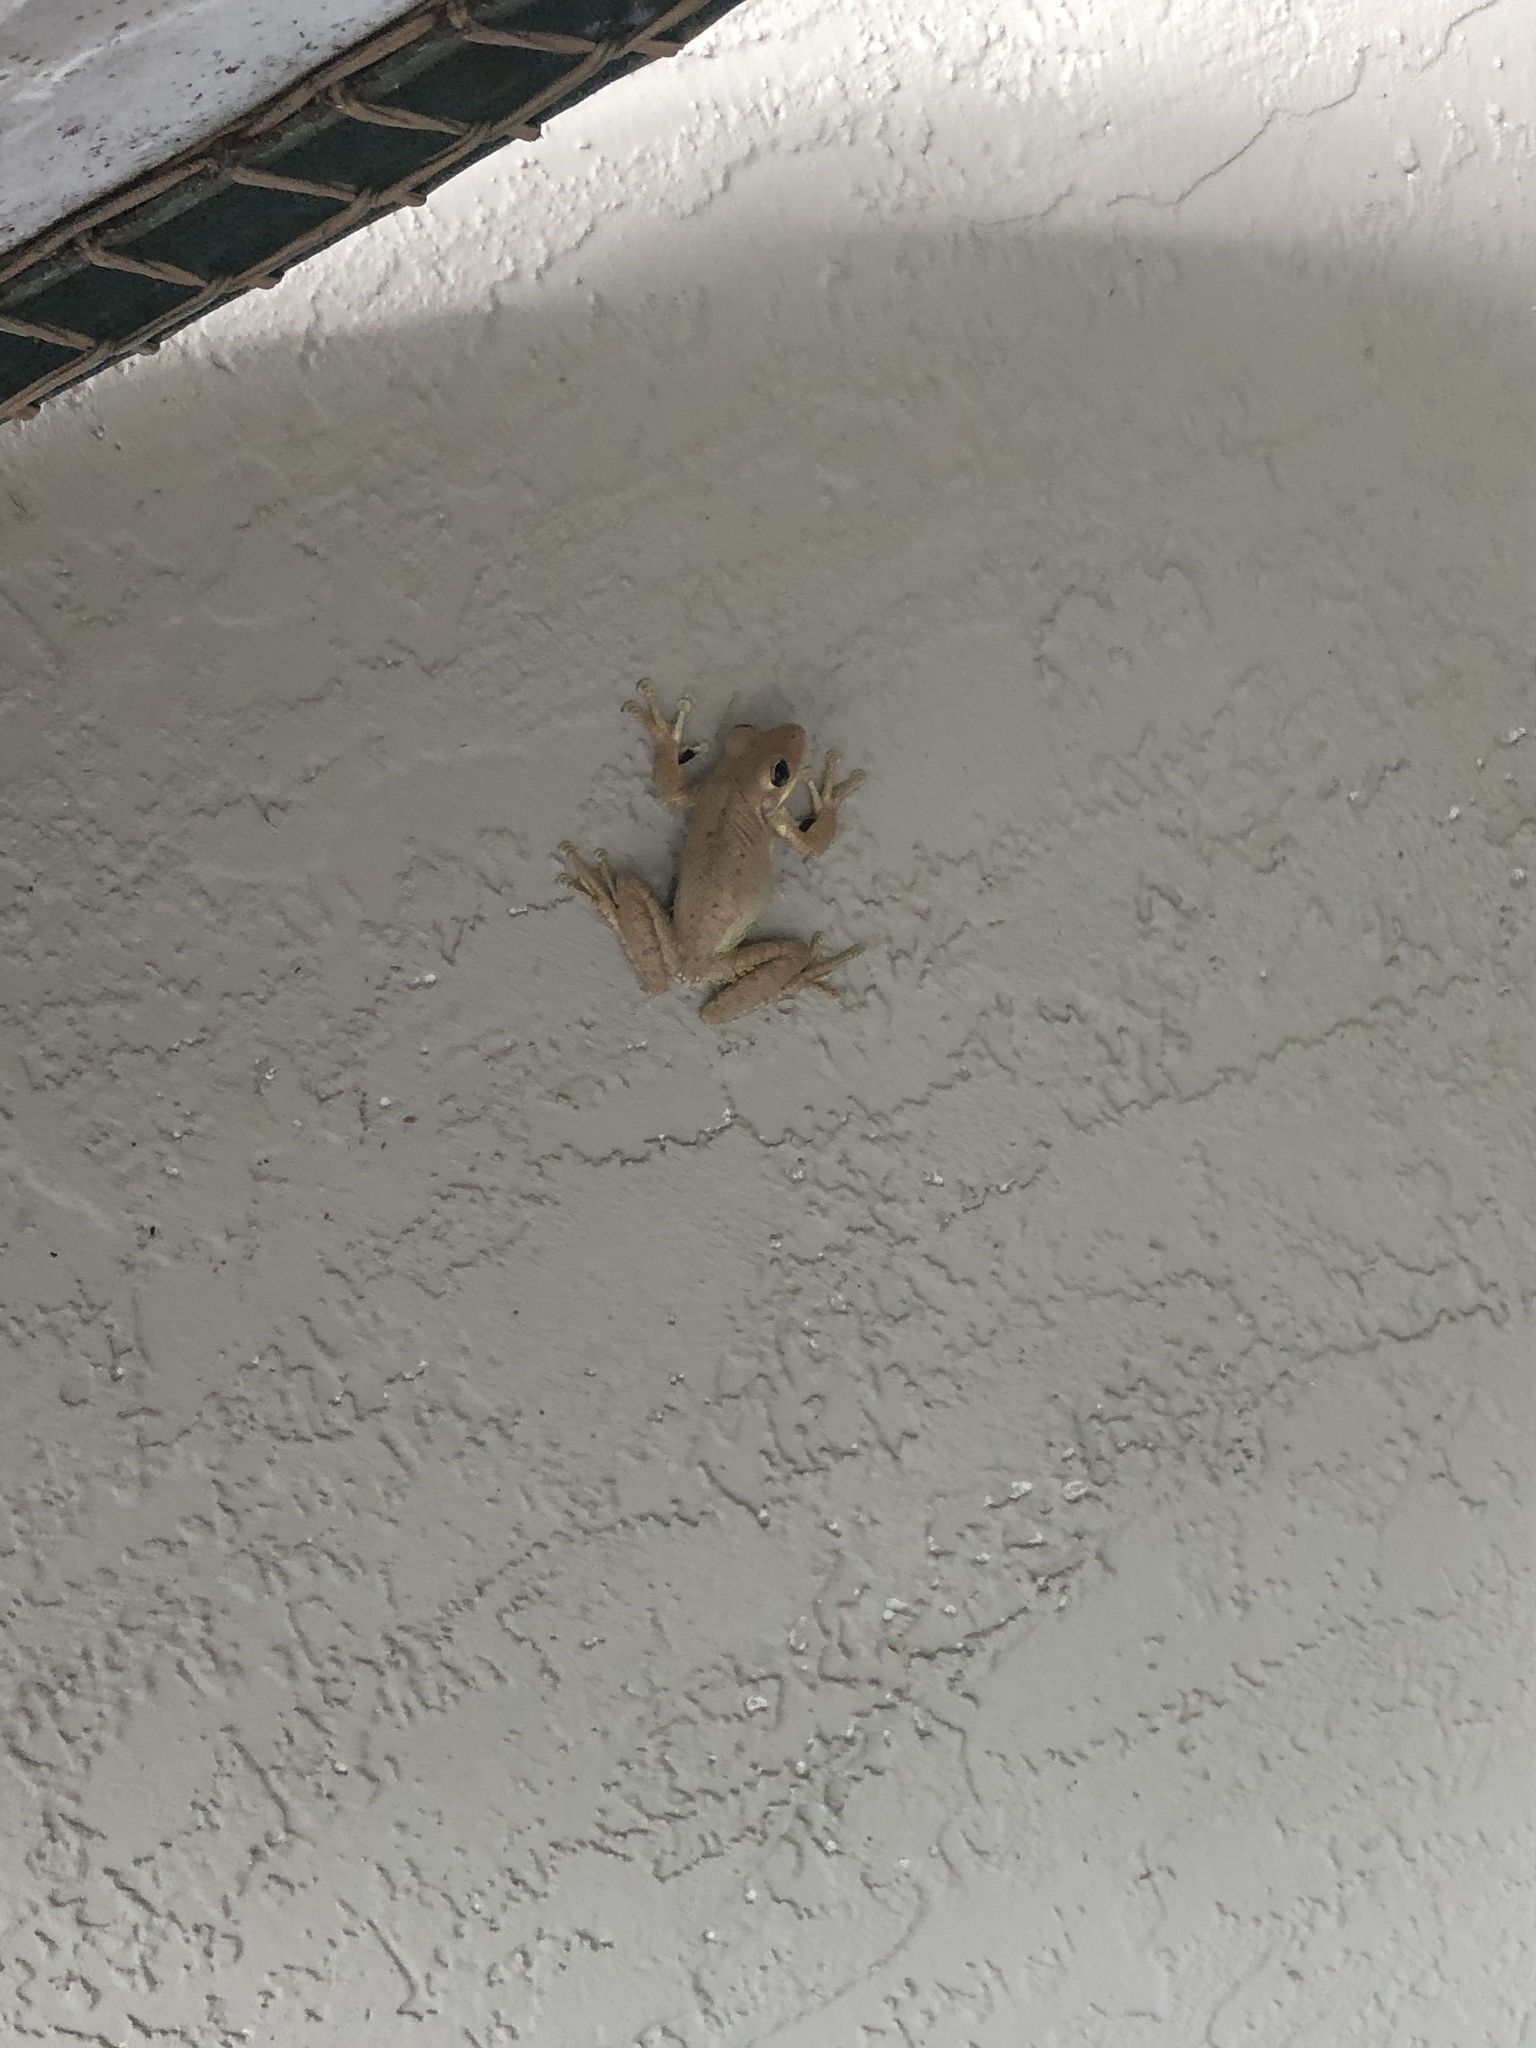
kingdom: Animalia
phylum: Chordata
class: Amphibia
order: Anura
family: Hylidae
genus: Osteopilus
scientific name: Osteopilus septentrionalis
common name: Cuban treefrog
